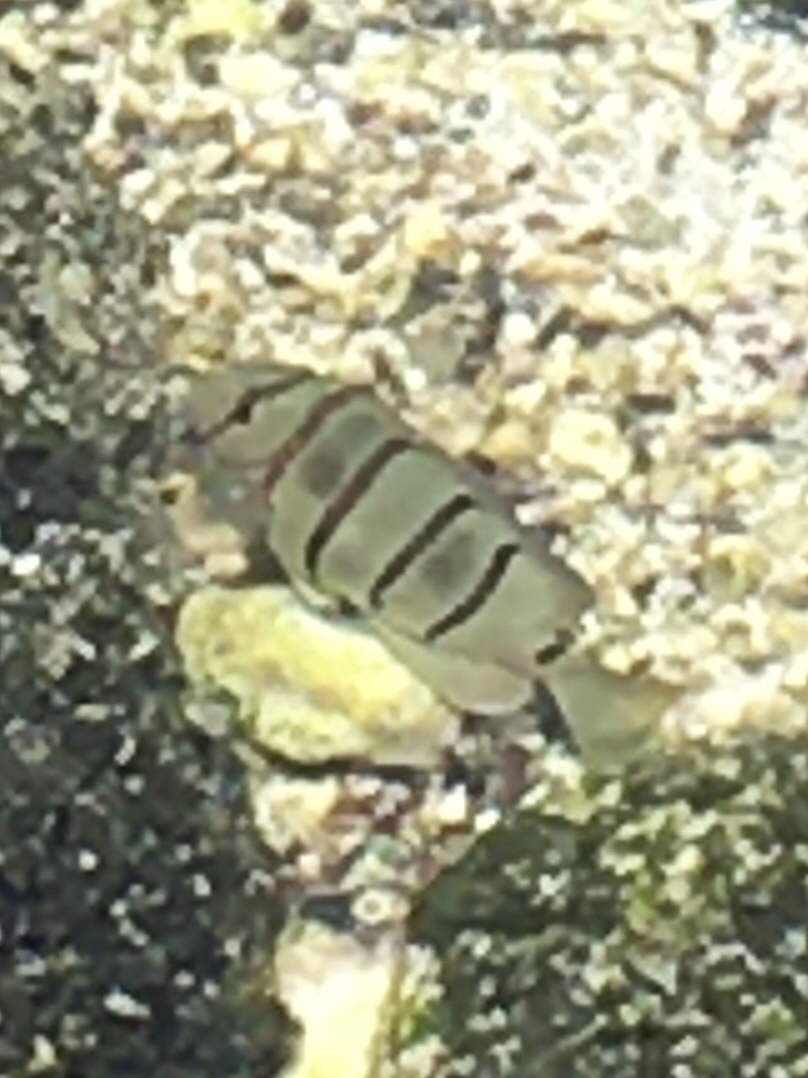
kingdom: Animalia
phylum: Chordata
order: Perciformes
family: Acanthuridae
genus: Acanthurus
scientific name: Acanthurus triostegus
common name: Convict surgeonfish
